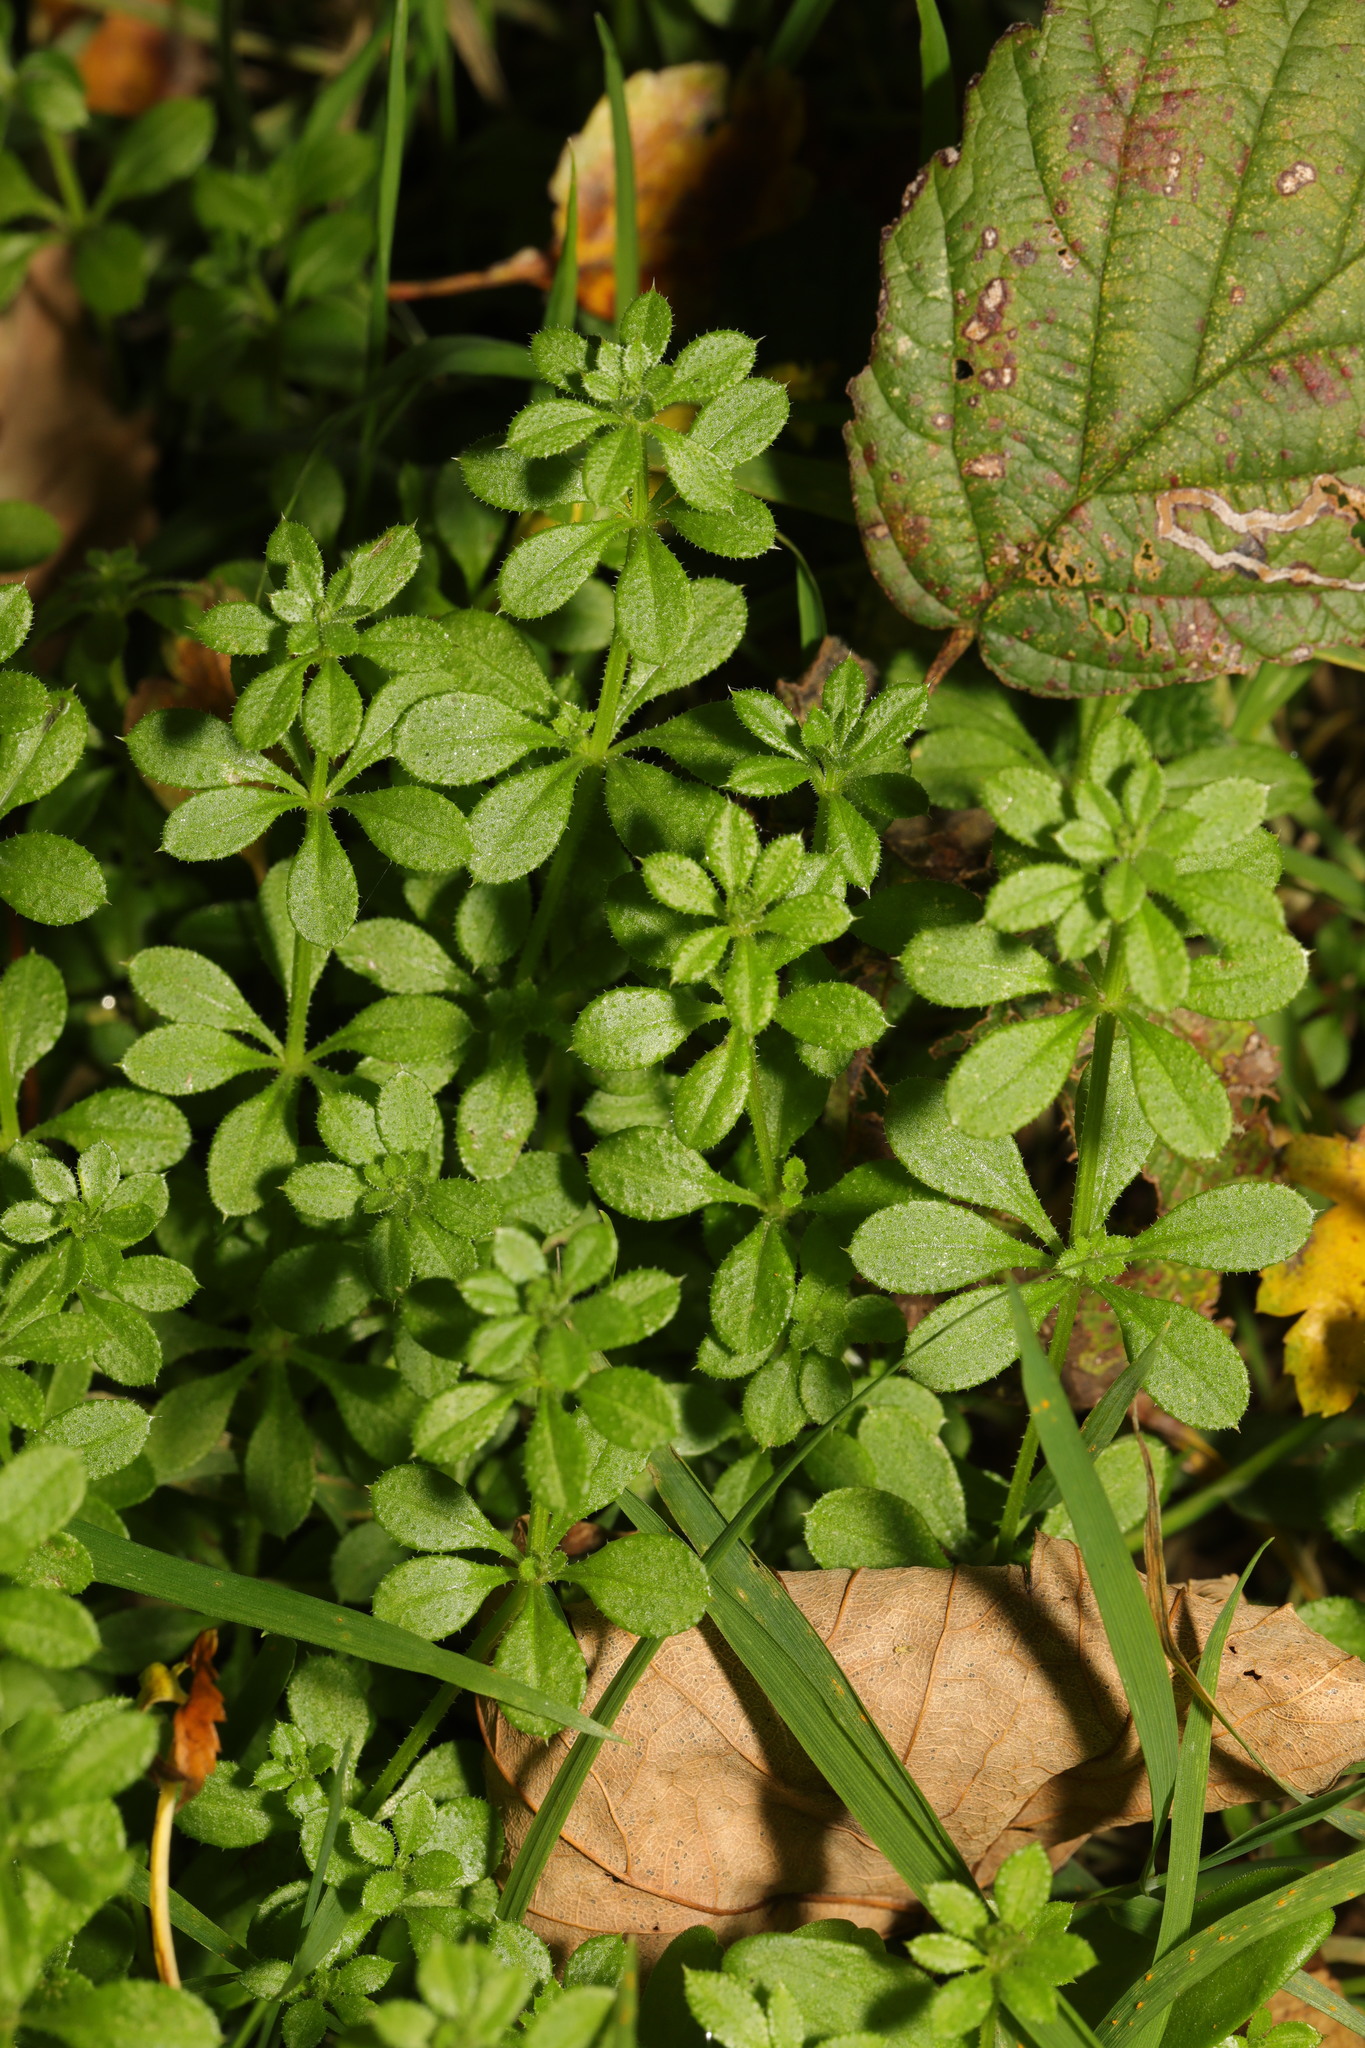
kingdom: Plantae
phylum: Tracheophyta
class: Magnoliopsida
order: Gentianales
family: Rubiaceae
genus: Galium
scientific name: Galium aparine
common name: Cleavers
